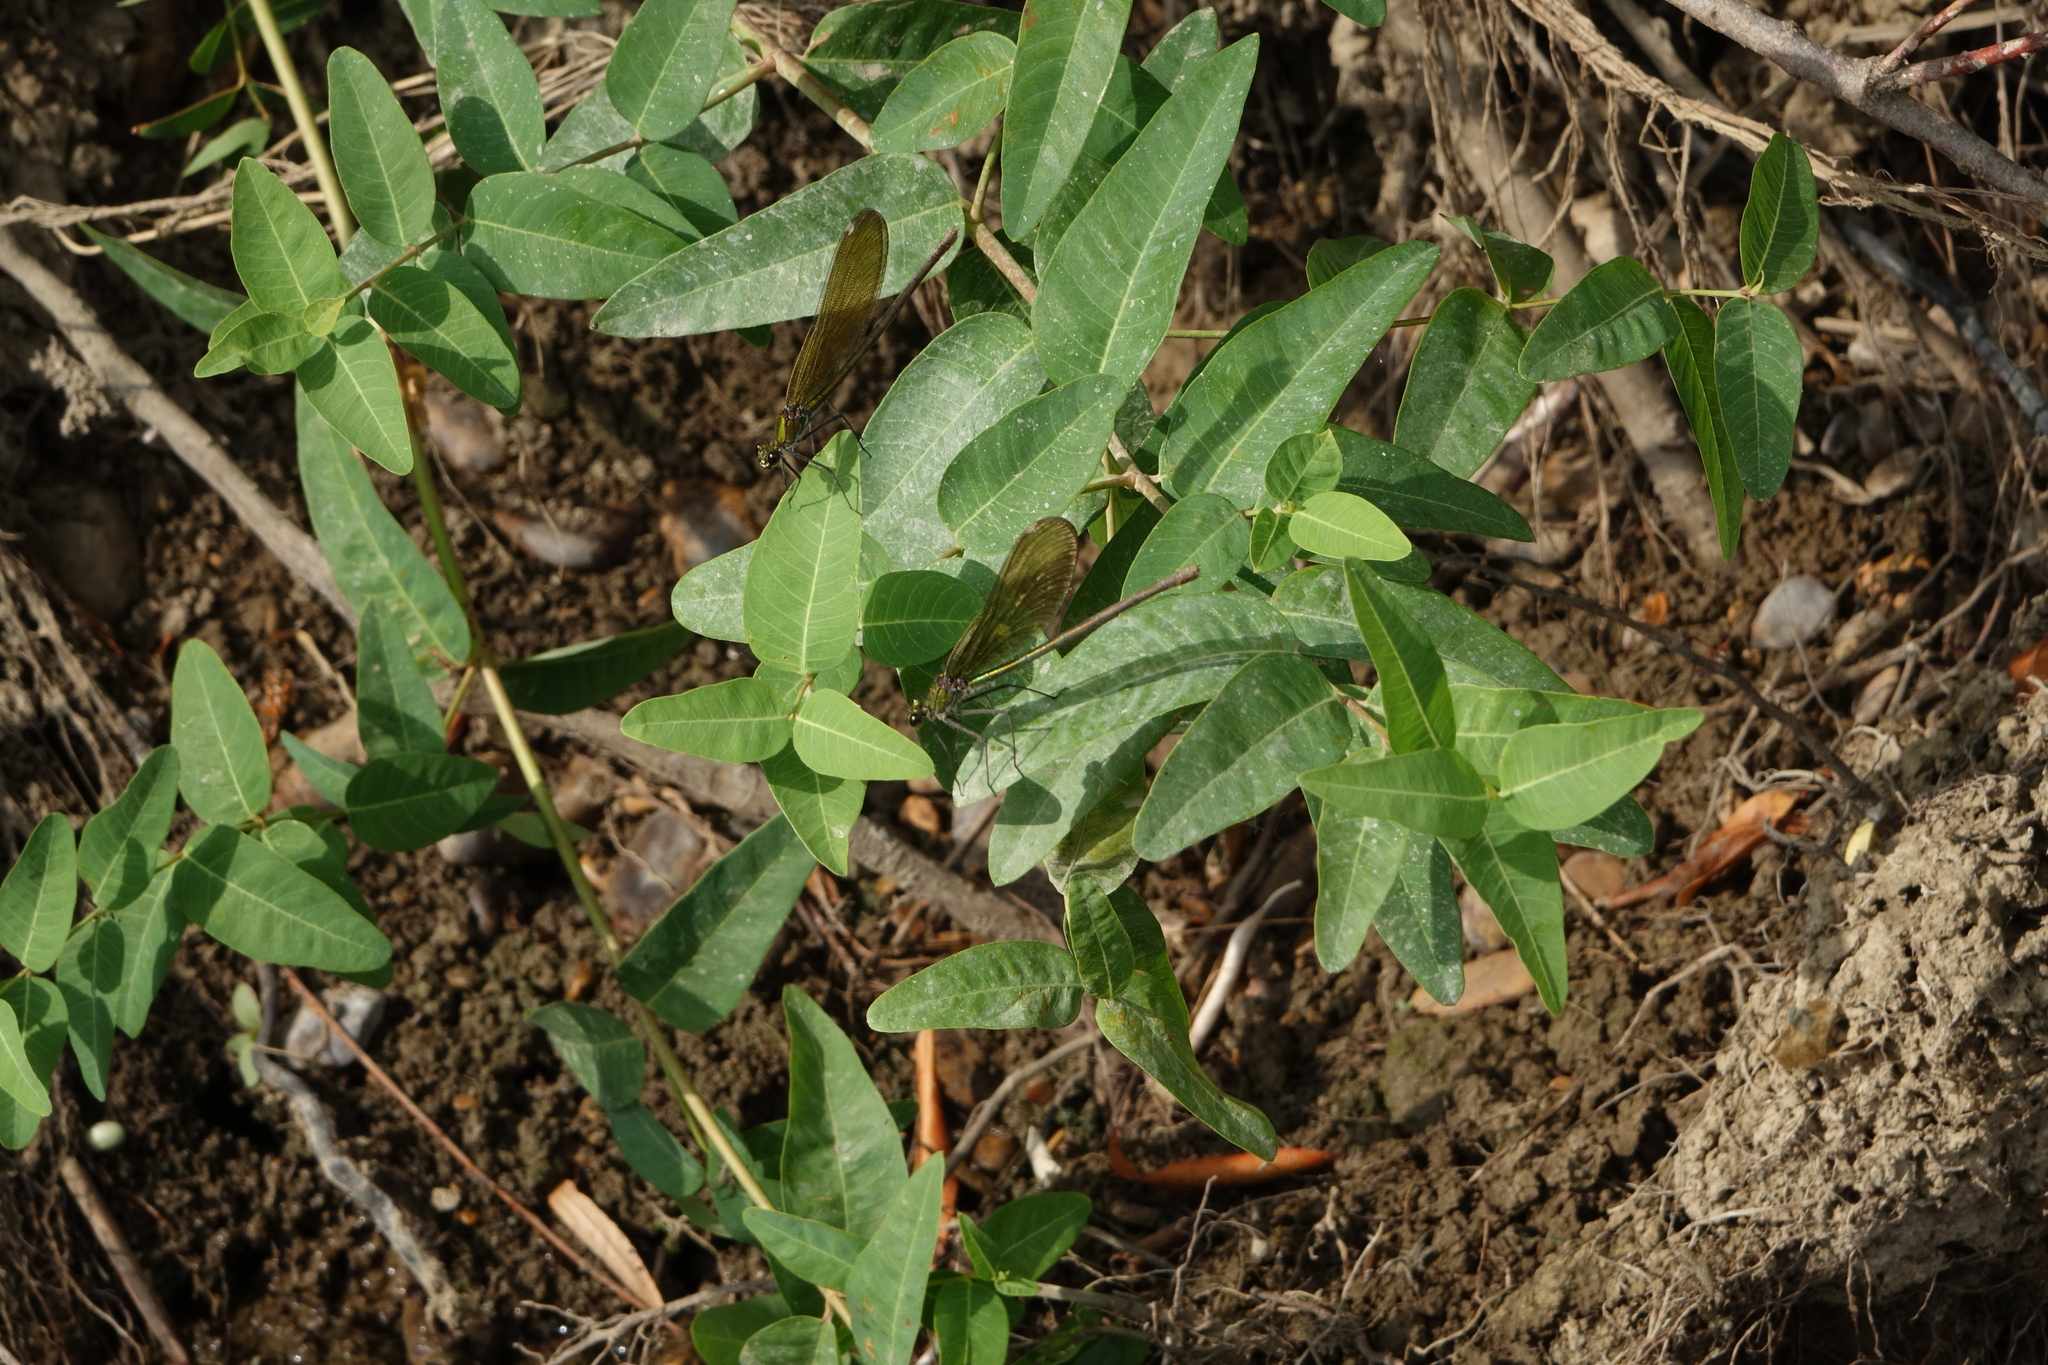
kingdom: Plantae
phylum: Tracheophyta
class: Magnoliopsida
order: Gentianales
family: Apocynaceae
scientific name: Apocynaceae
